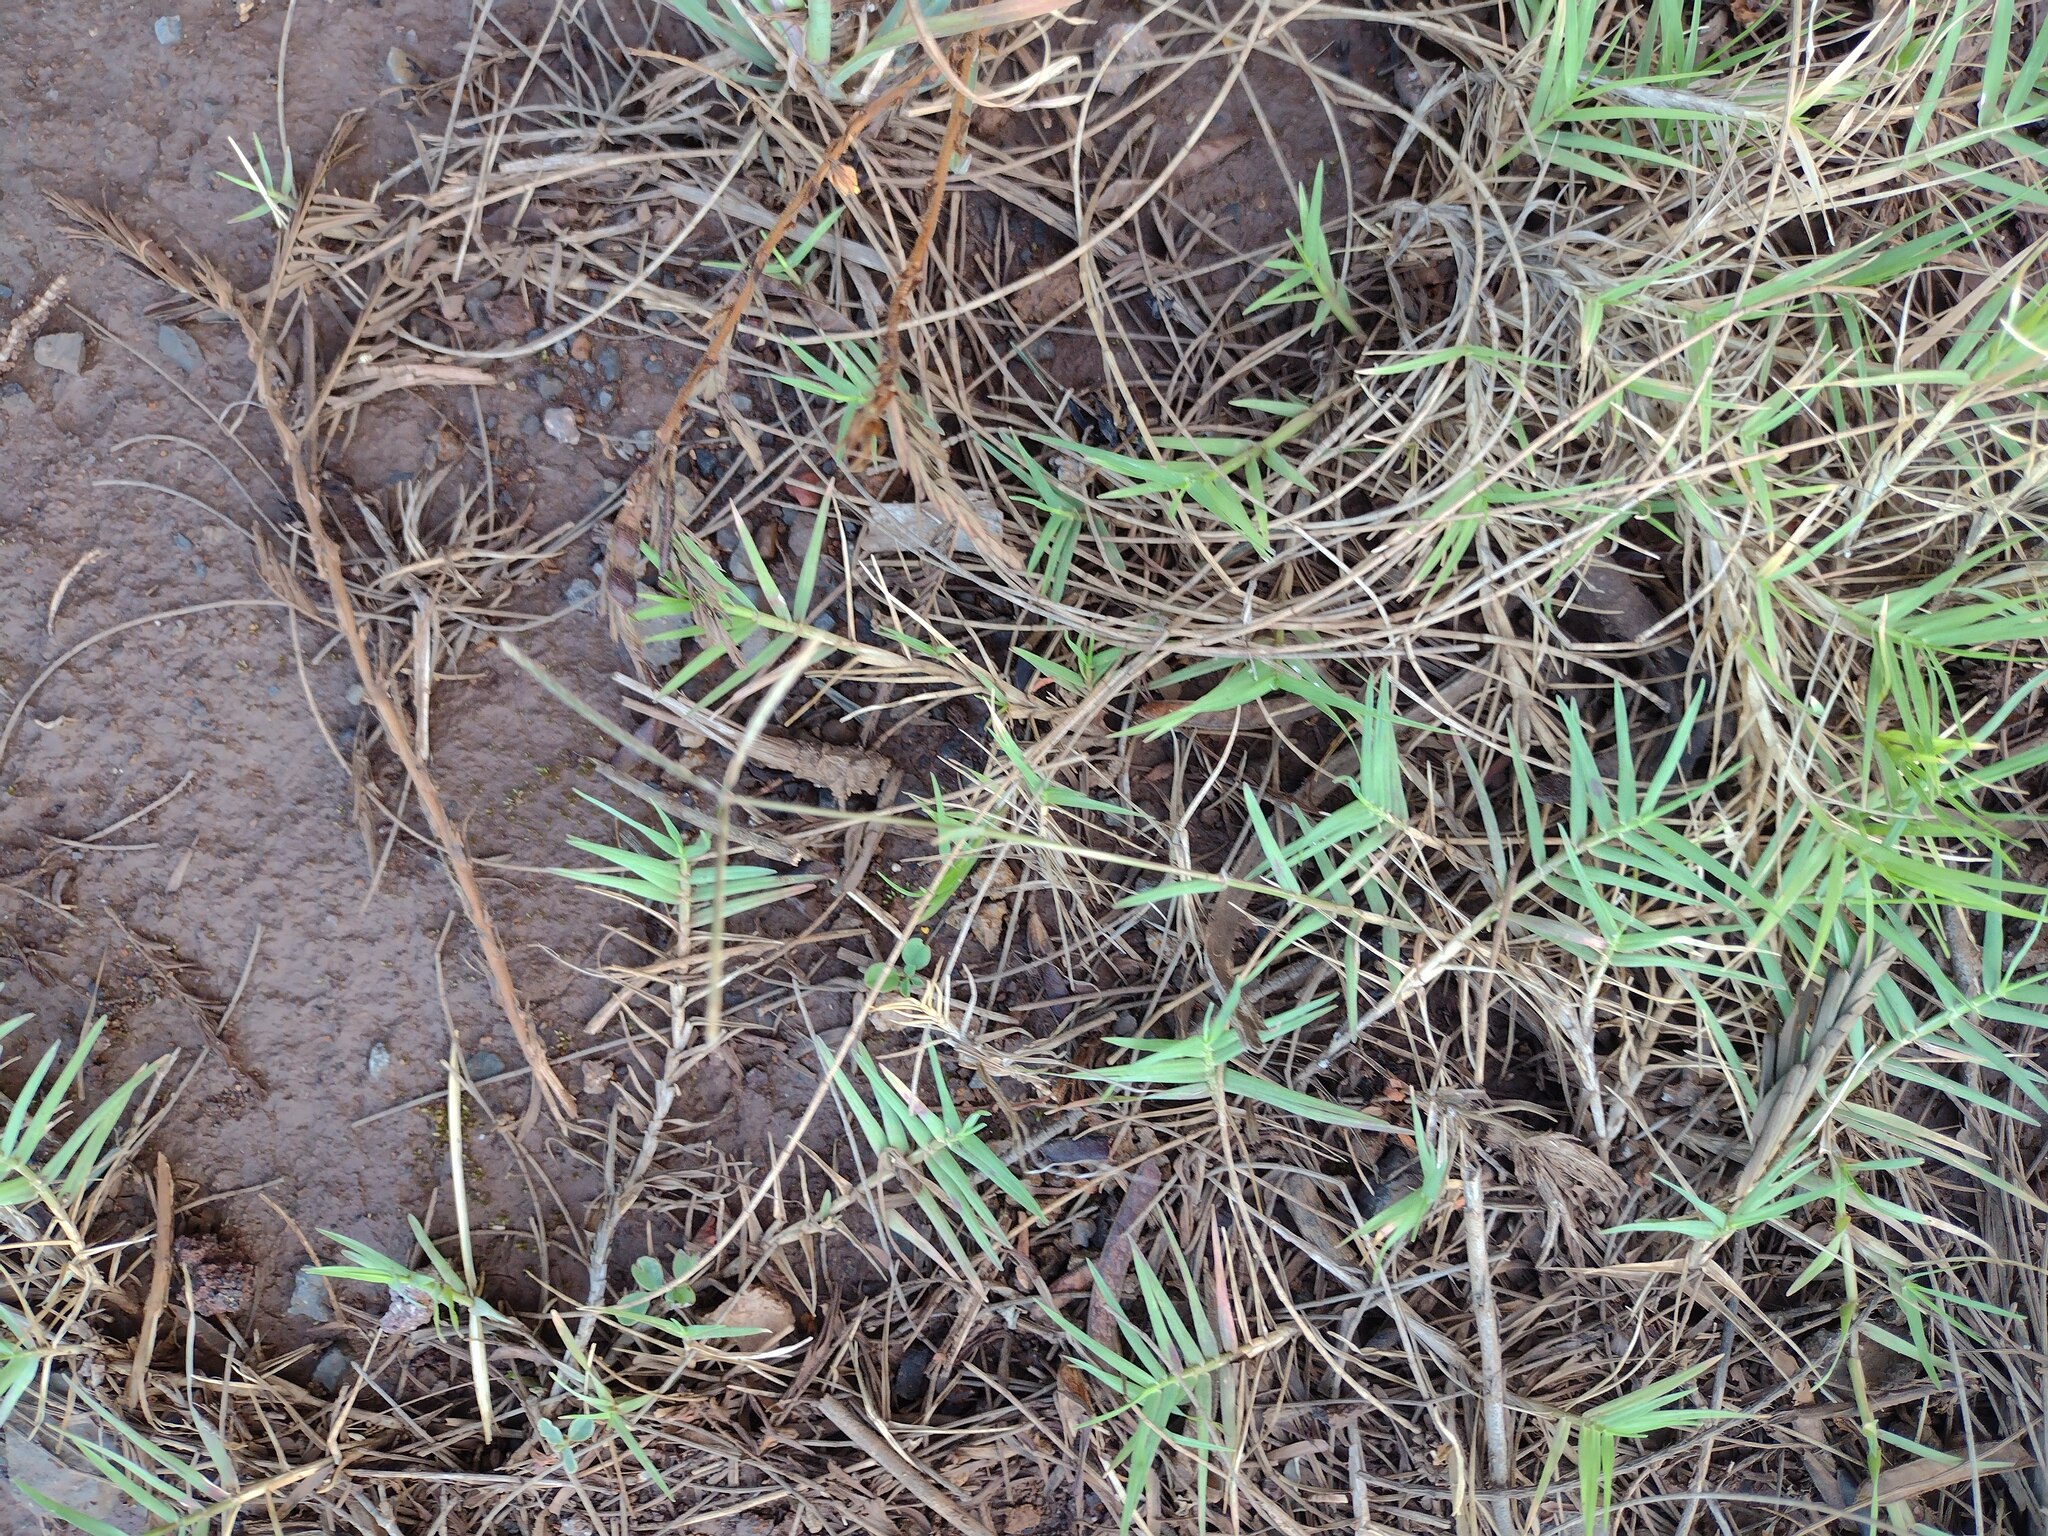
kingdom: Plantae
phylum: Tracheophyta
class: Liliopsida
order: Poales
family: Poaceae
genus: Cynodon
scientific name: Cynodon dactylon
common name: Bermuda grass
